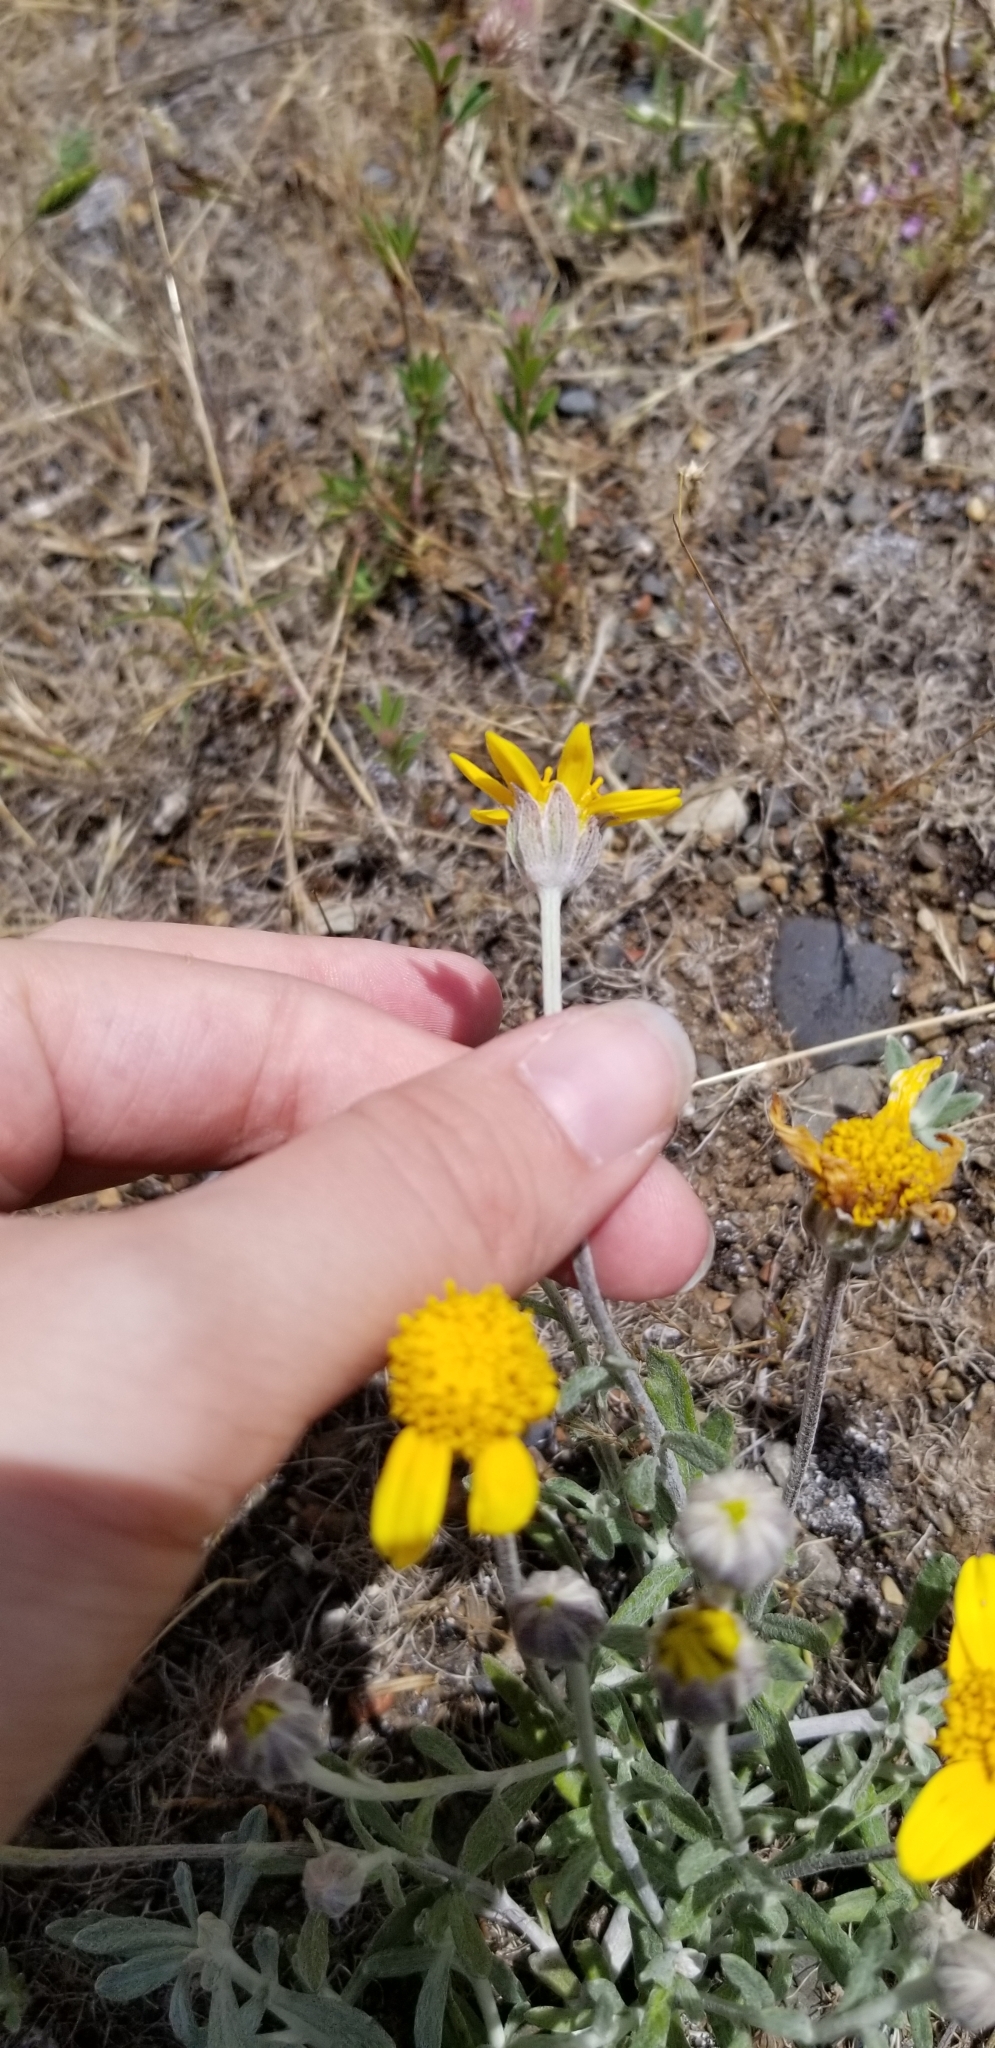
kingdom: Plantae
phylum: Tracheophyta
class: Magnoliopsida
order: Asterales
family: Asteraceae
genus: Eriophyllum
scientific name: Eriophyllum lanatum
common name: Common woolly-sunflower
